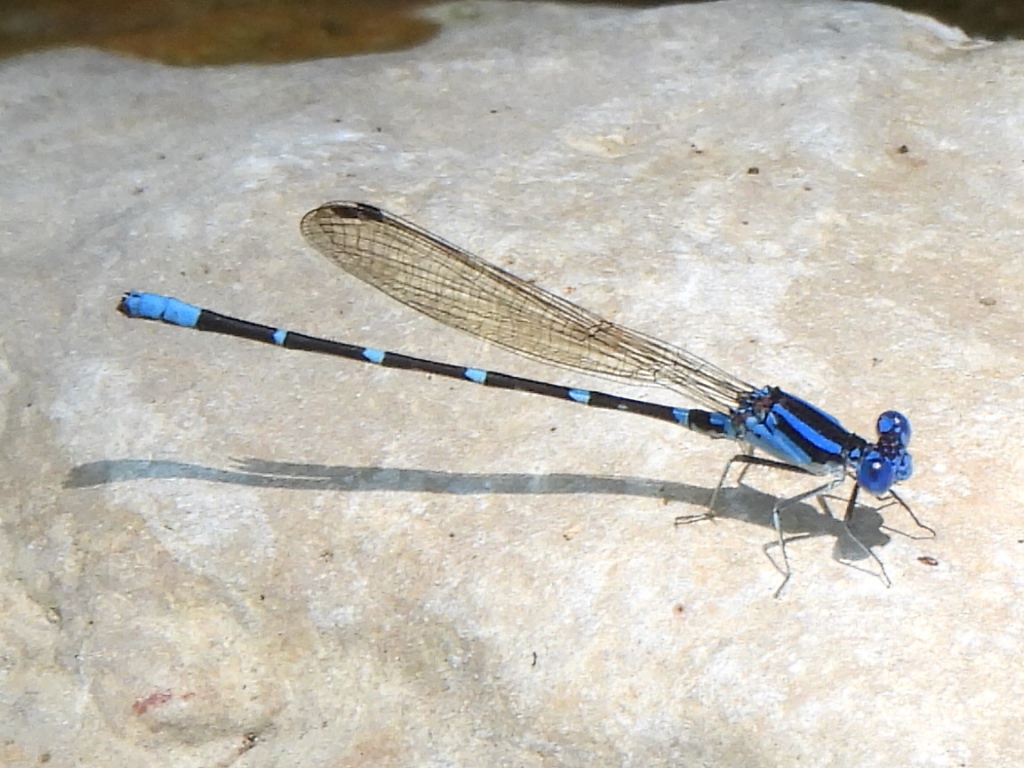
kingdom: Animalia
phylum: Arthropoda
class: Insecta
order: Odonata
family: Coenagrionidae
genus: Argia
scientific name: Argia sedula
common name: Blue-ringed dancer
